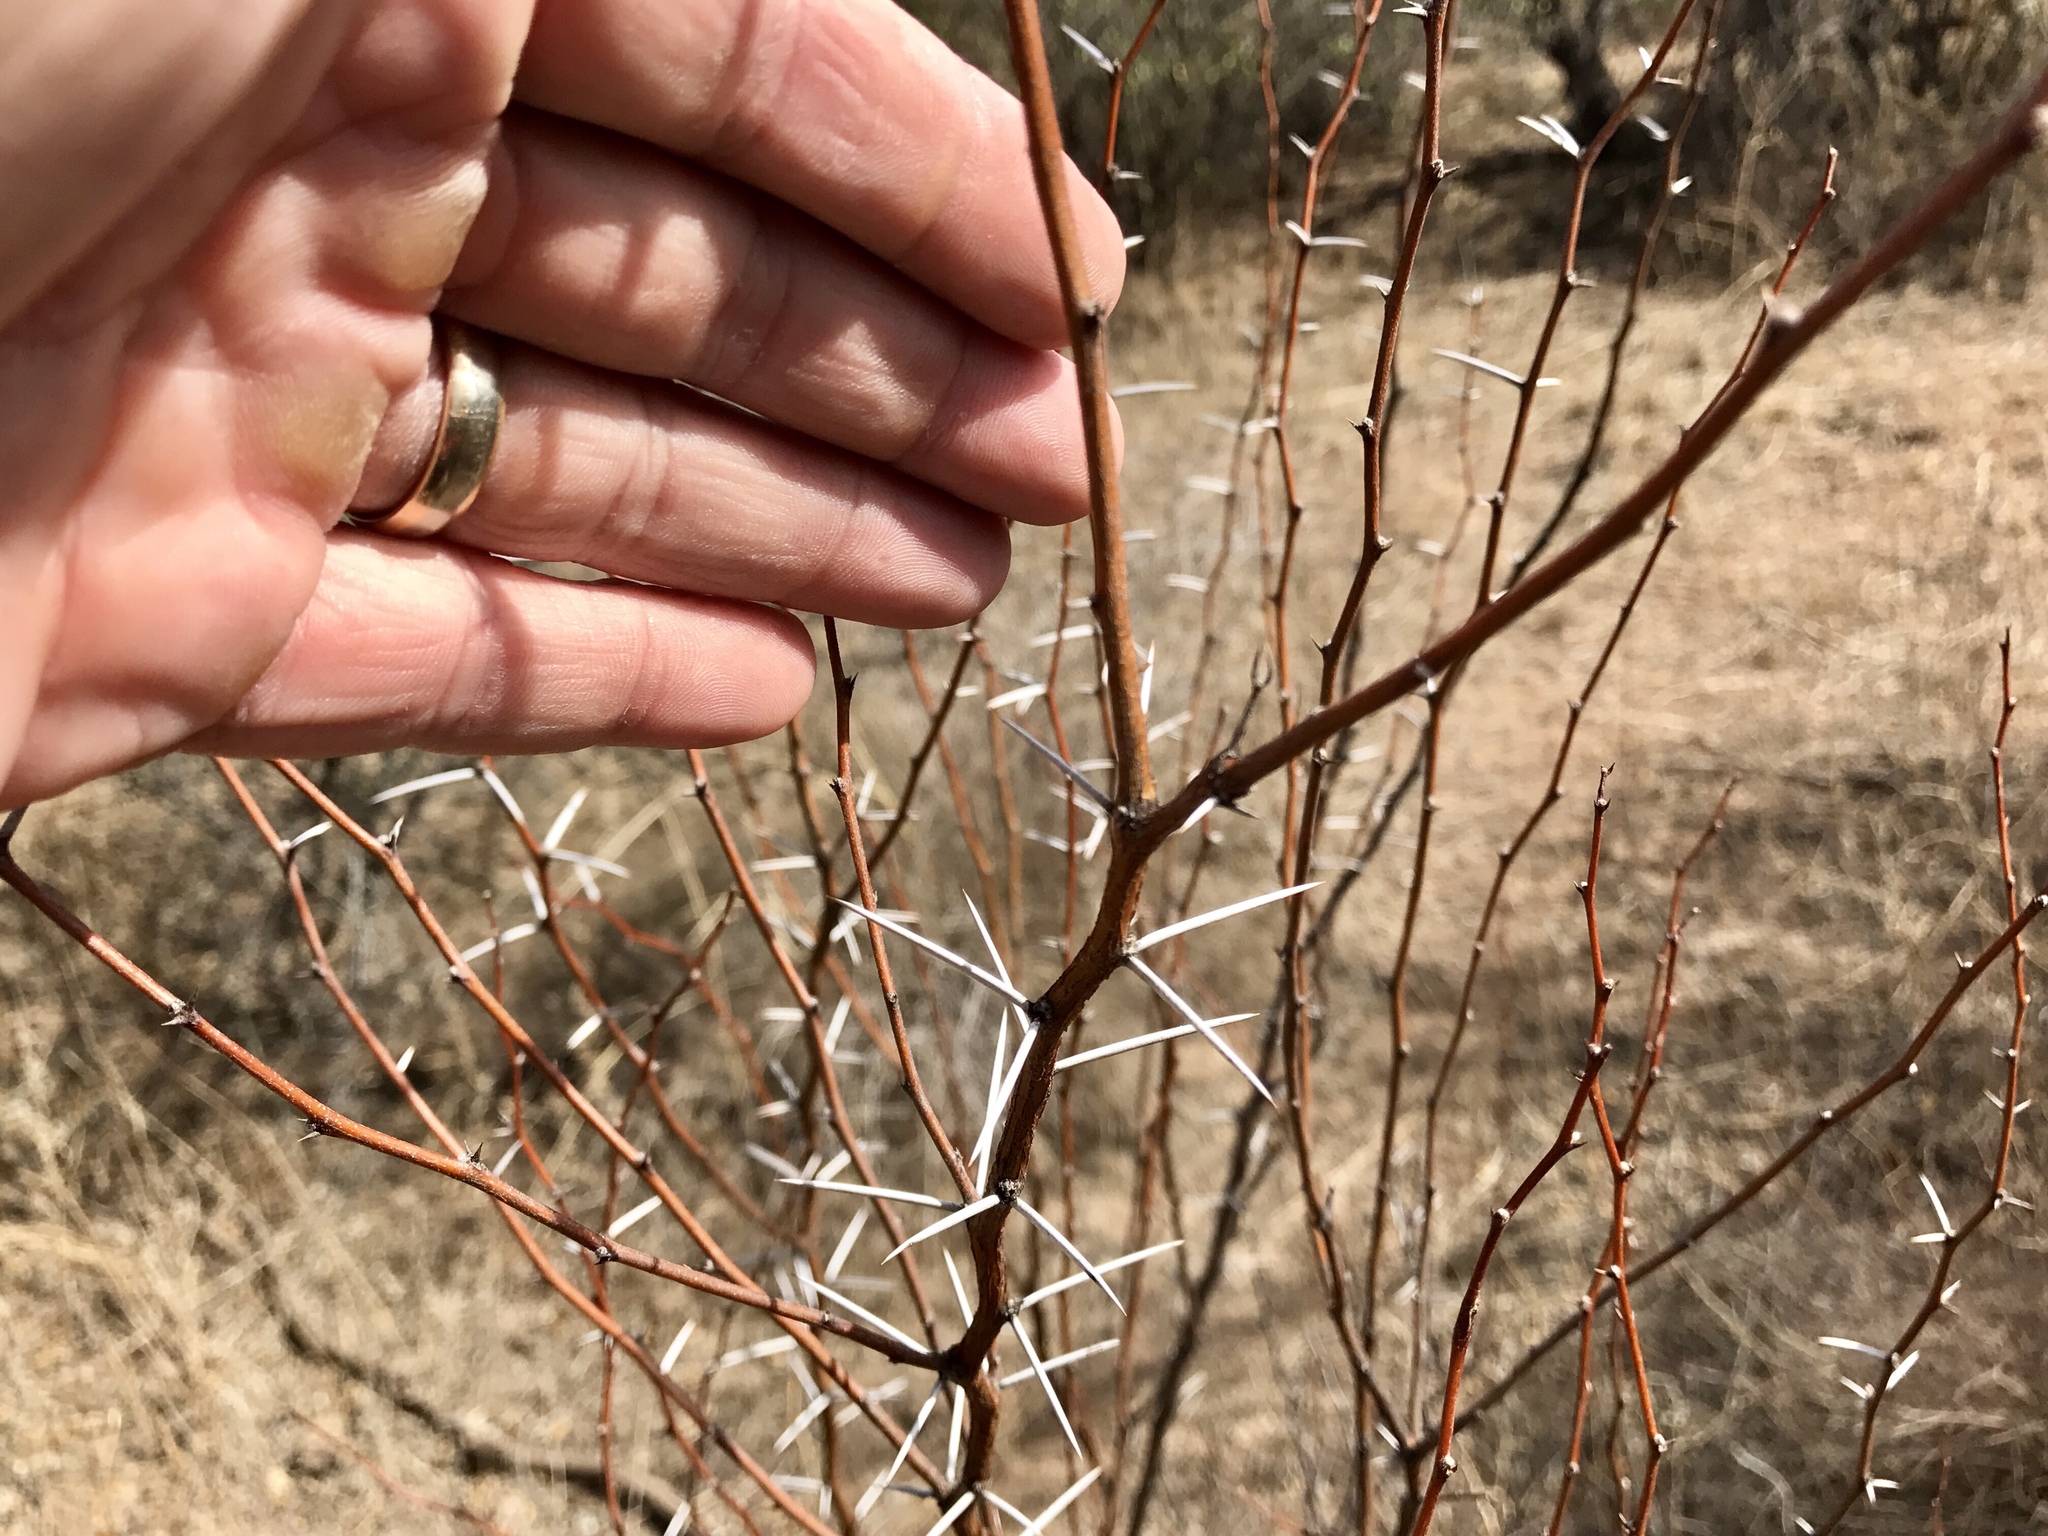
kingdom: Plantae
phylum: Tracheophyta
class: Magnoliopsida
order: Fabales
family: Fabaceae
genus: Vachellia
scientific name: Vachellia constricta
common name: Mescat acacia
